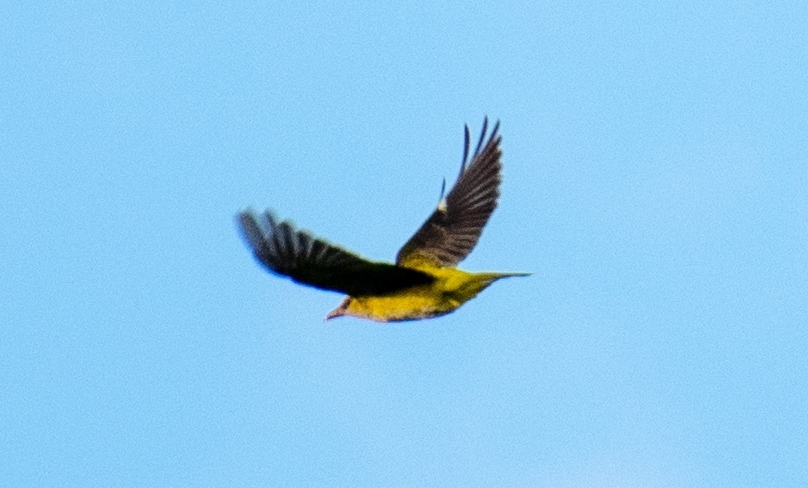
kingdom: Animalia
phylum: Chordata
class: Aves
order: Passeriformes
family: Oriolidae
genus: Oriolus
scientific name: Oriolus oriolus
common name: Eurasian golden oriole
